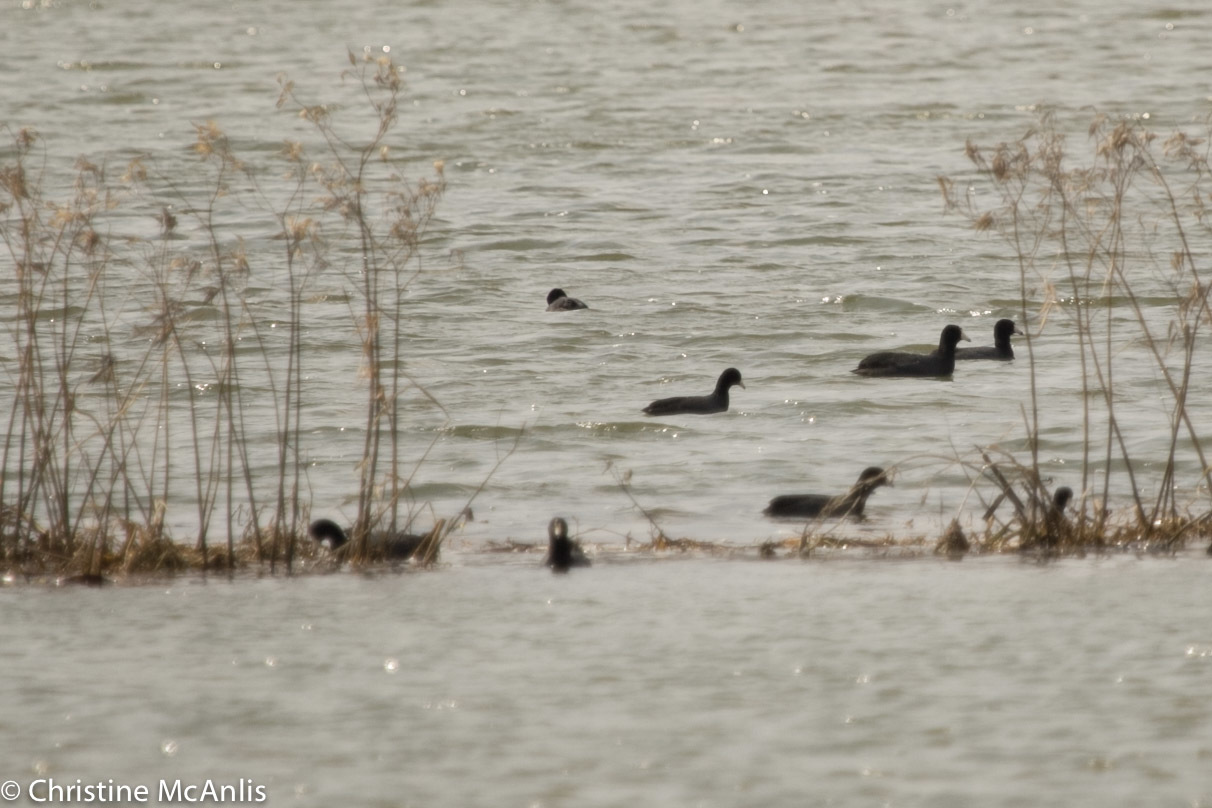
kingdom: Animalia
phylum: Chordata
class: Aves
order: Gruiformes
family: Rallidae
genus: Fulica
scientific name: Fulica americana
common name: American coot
